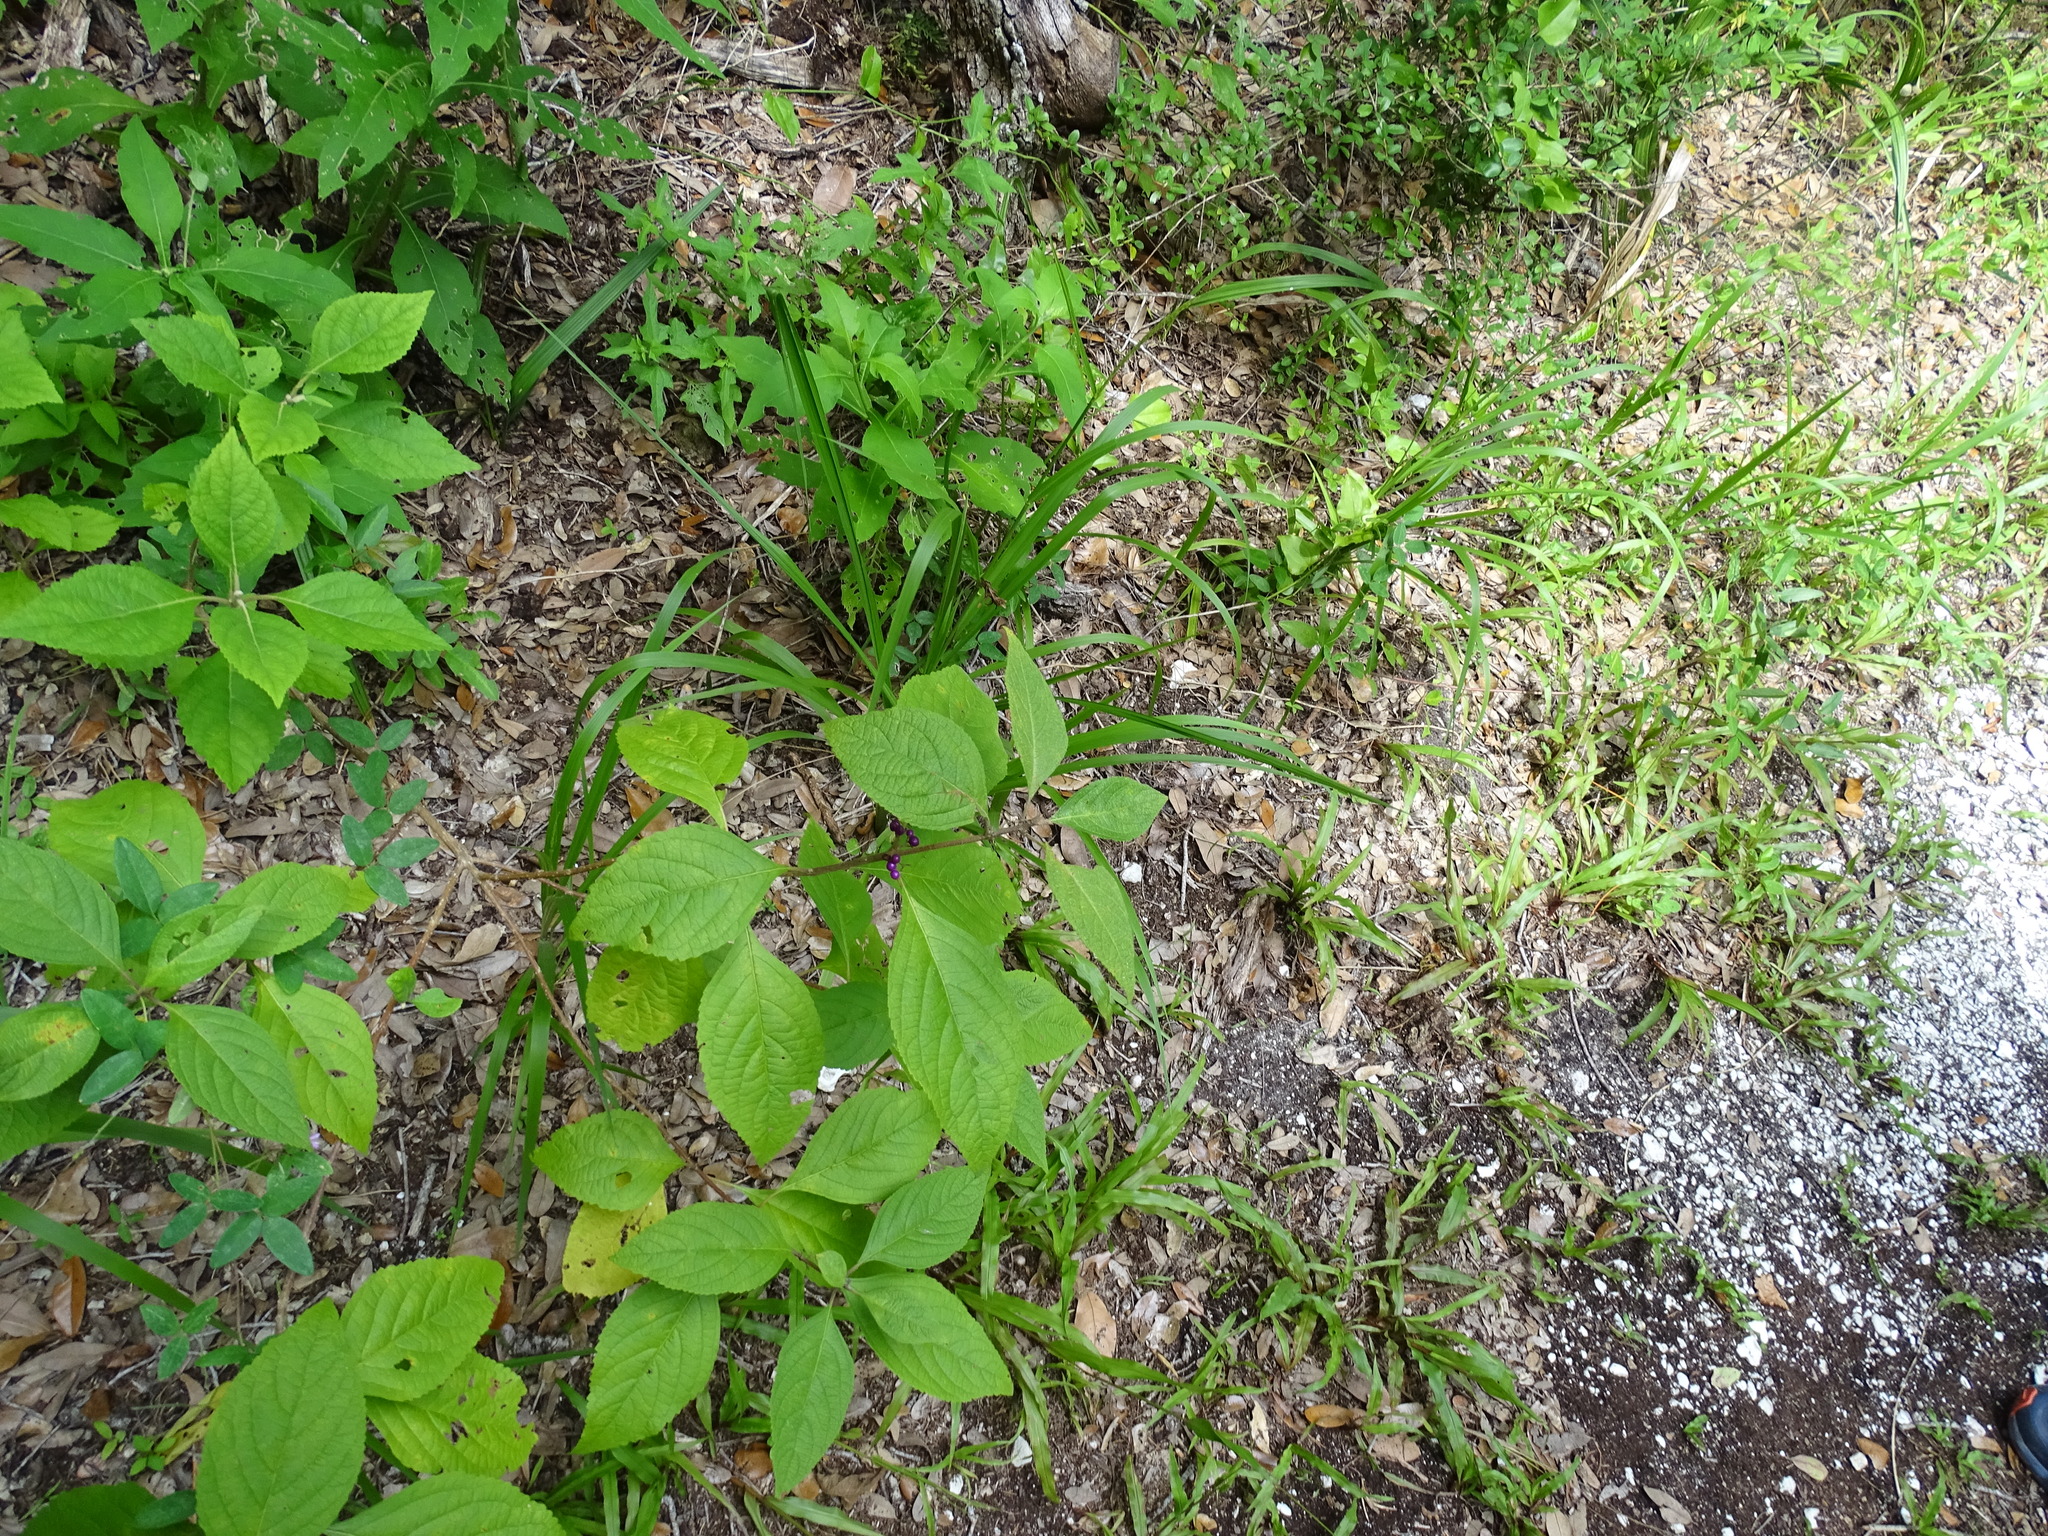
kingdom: Plantae
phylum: Tracheophyta
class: Magnoliopsida
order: Lamiales
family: Lamiaceae
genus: Callicarpa
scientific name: Callicarpa americana
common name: American beautyberry
